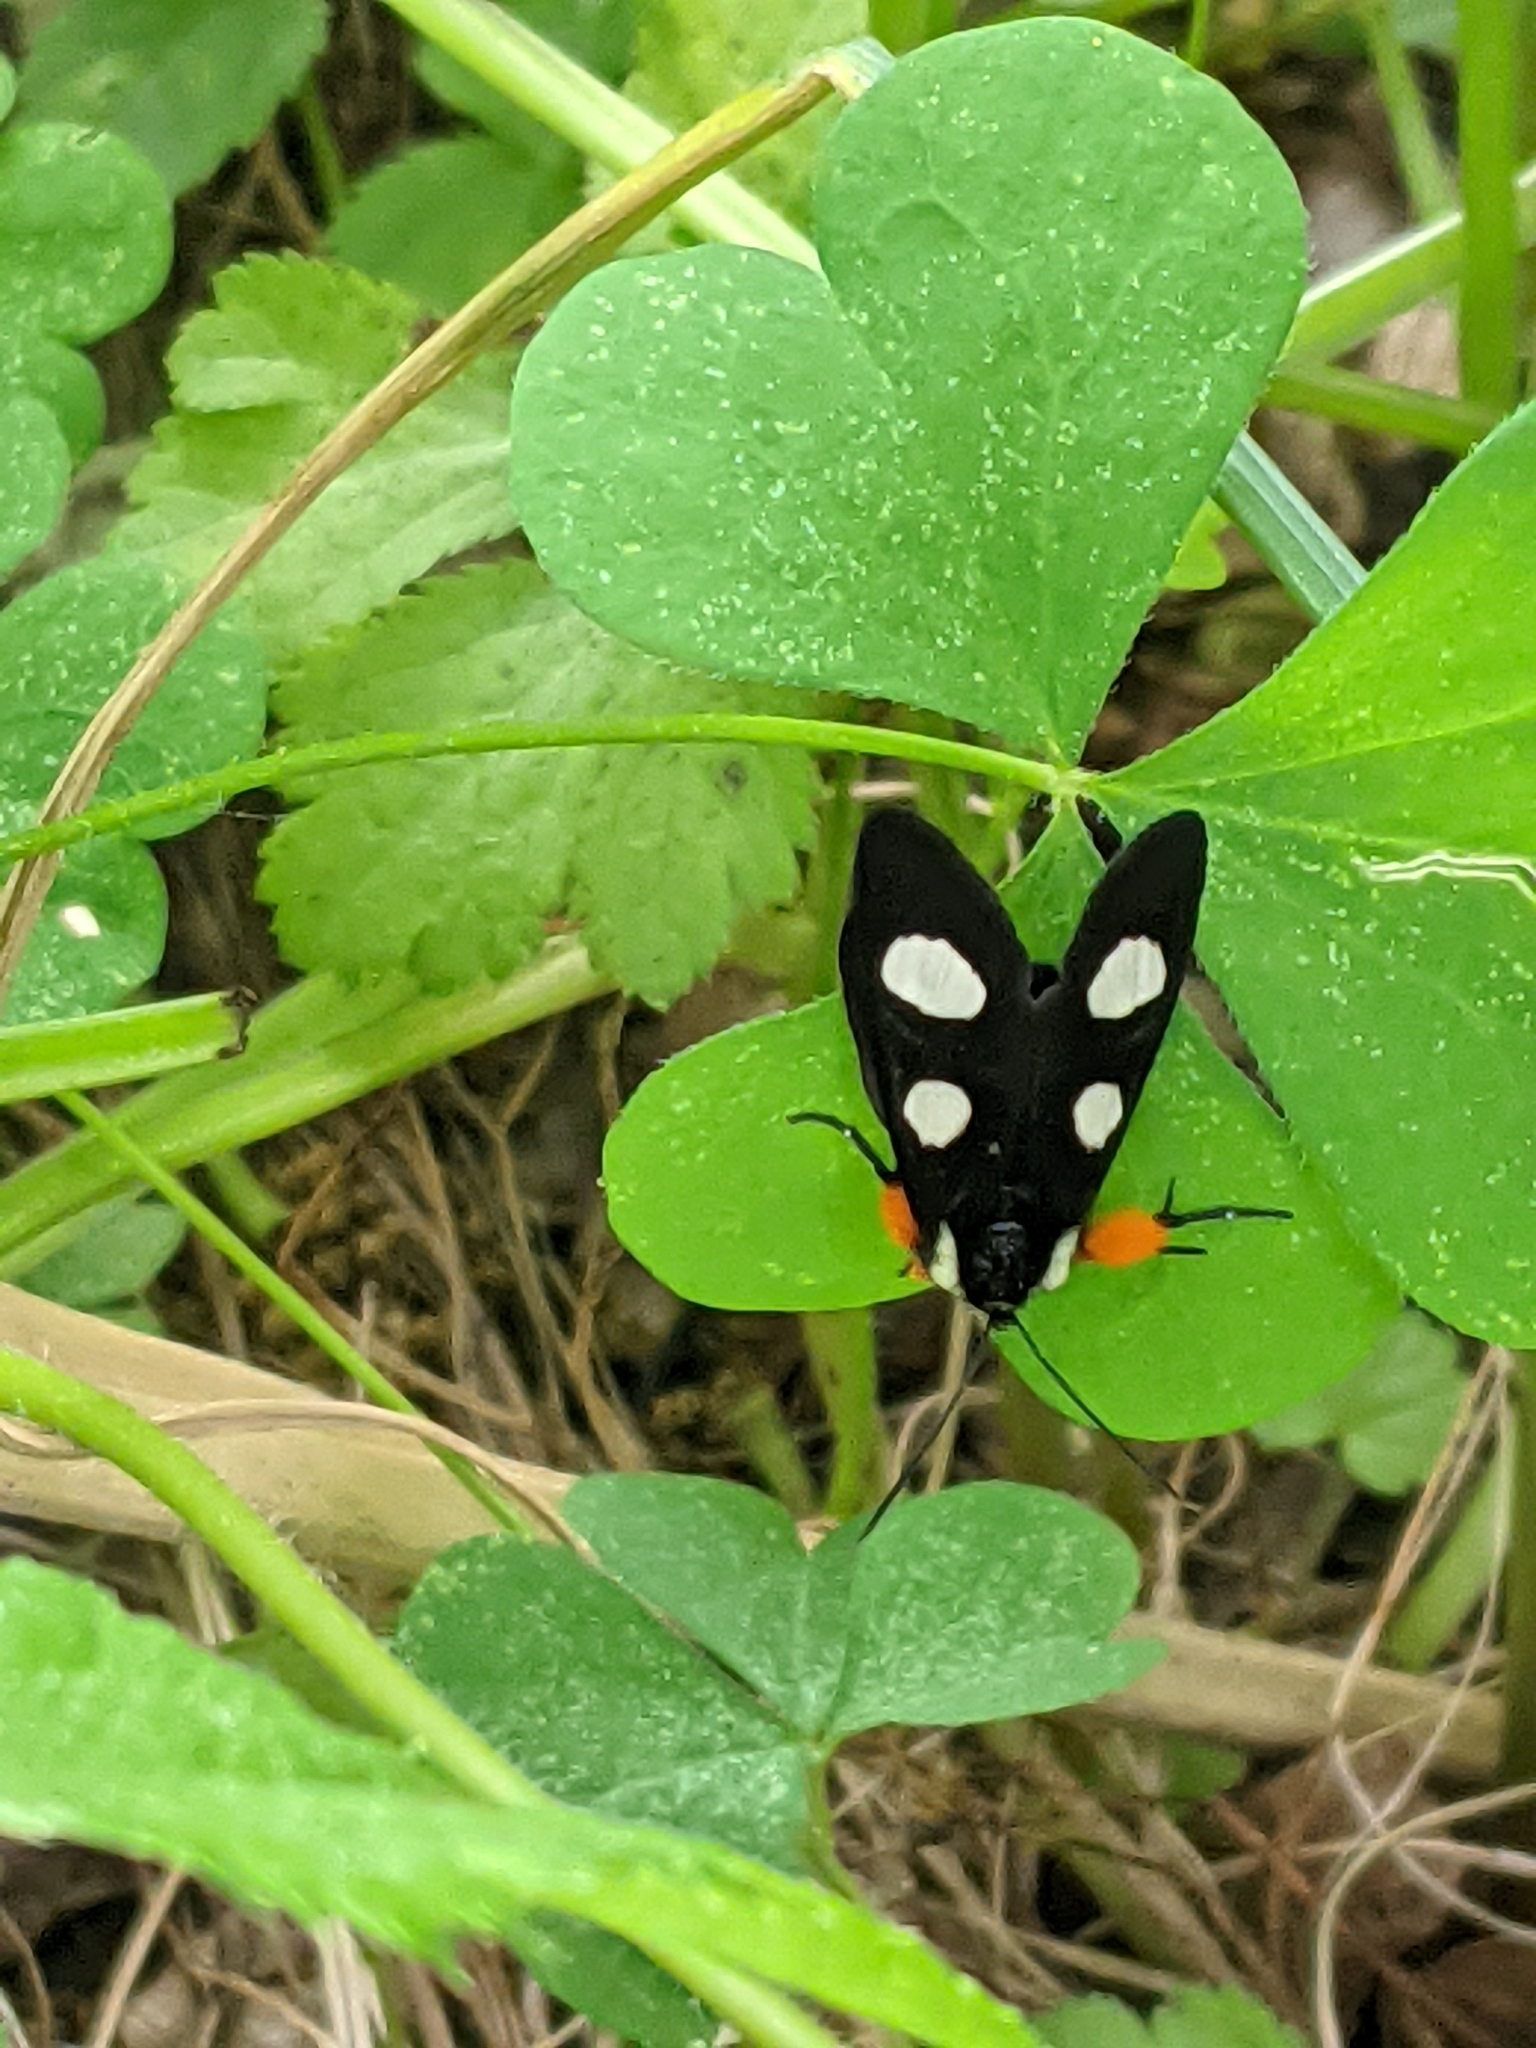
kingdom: Animalia
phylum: Arthropoda
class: Insecta
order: Lepidoptera
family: Noctuidae
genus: Alypia
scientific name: Alypia octomaculata
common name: Eight-spotted forester
